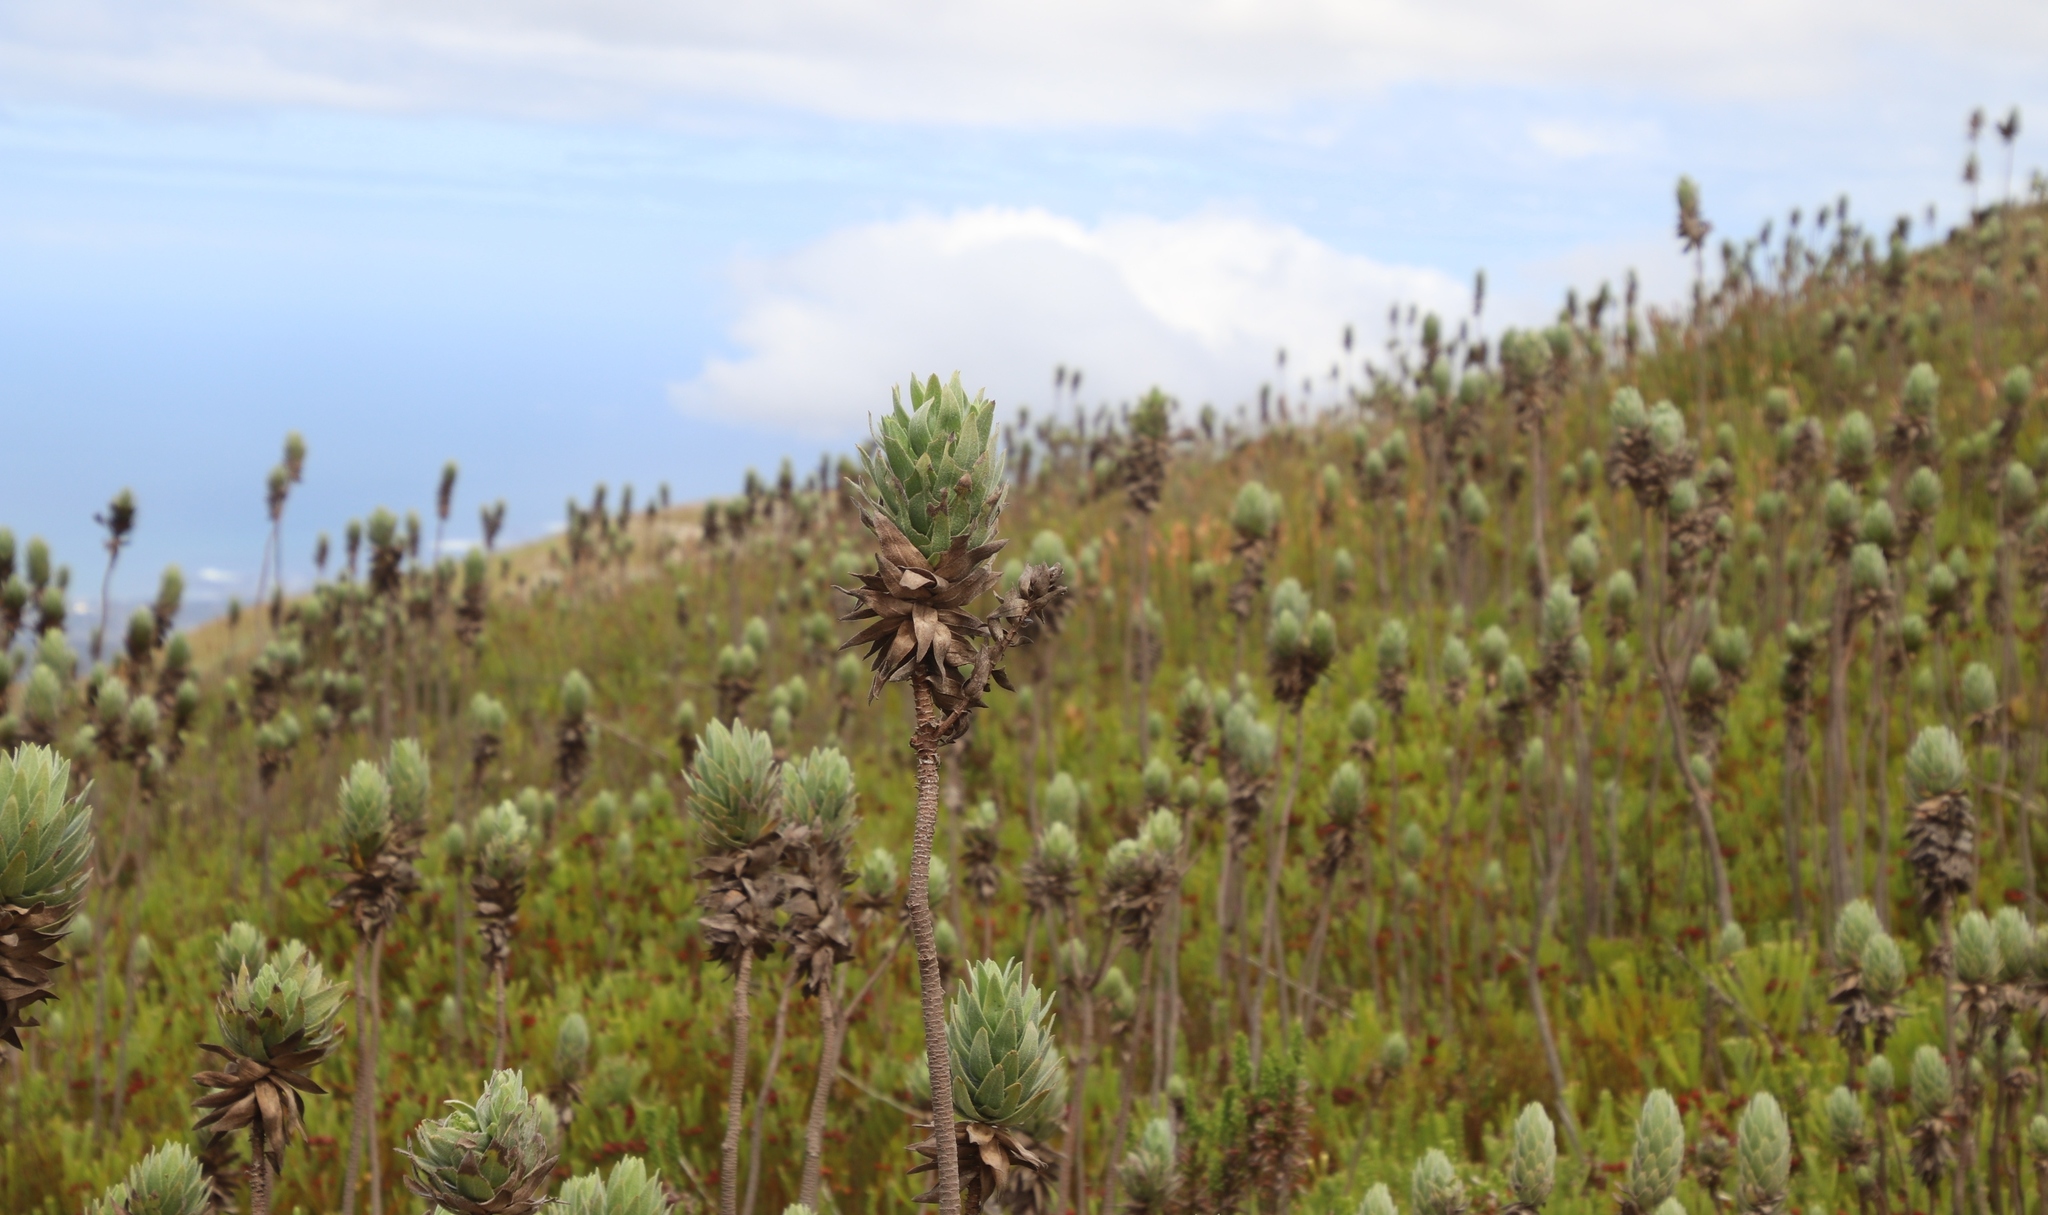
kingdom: Plantae
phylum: Tracheophyta
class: Magnoliopsida
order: Asterales
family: Asteraceae
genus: Osmitopsis
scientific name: Osmitopsis asteriscoides
